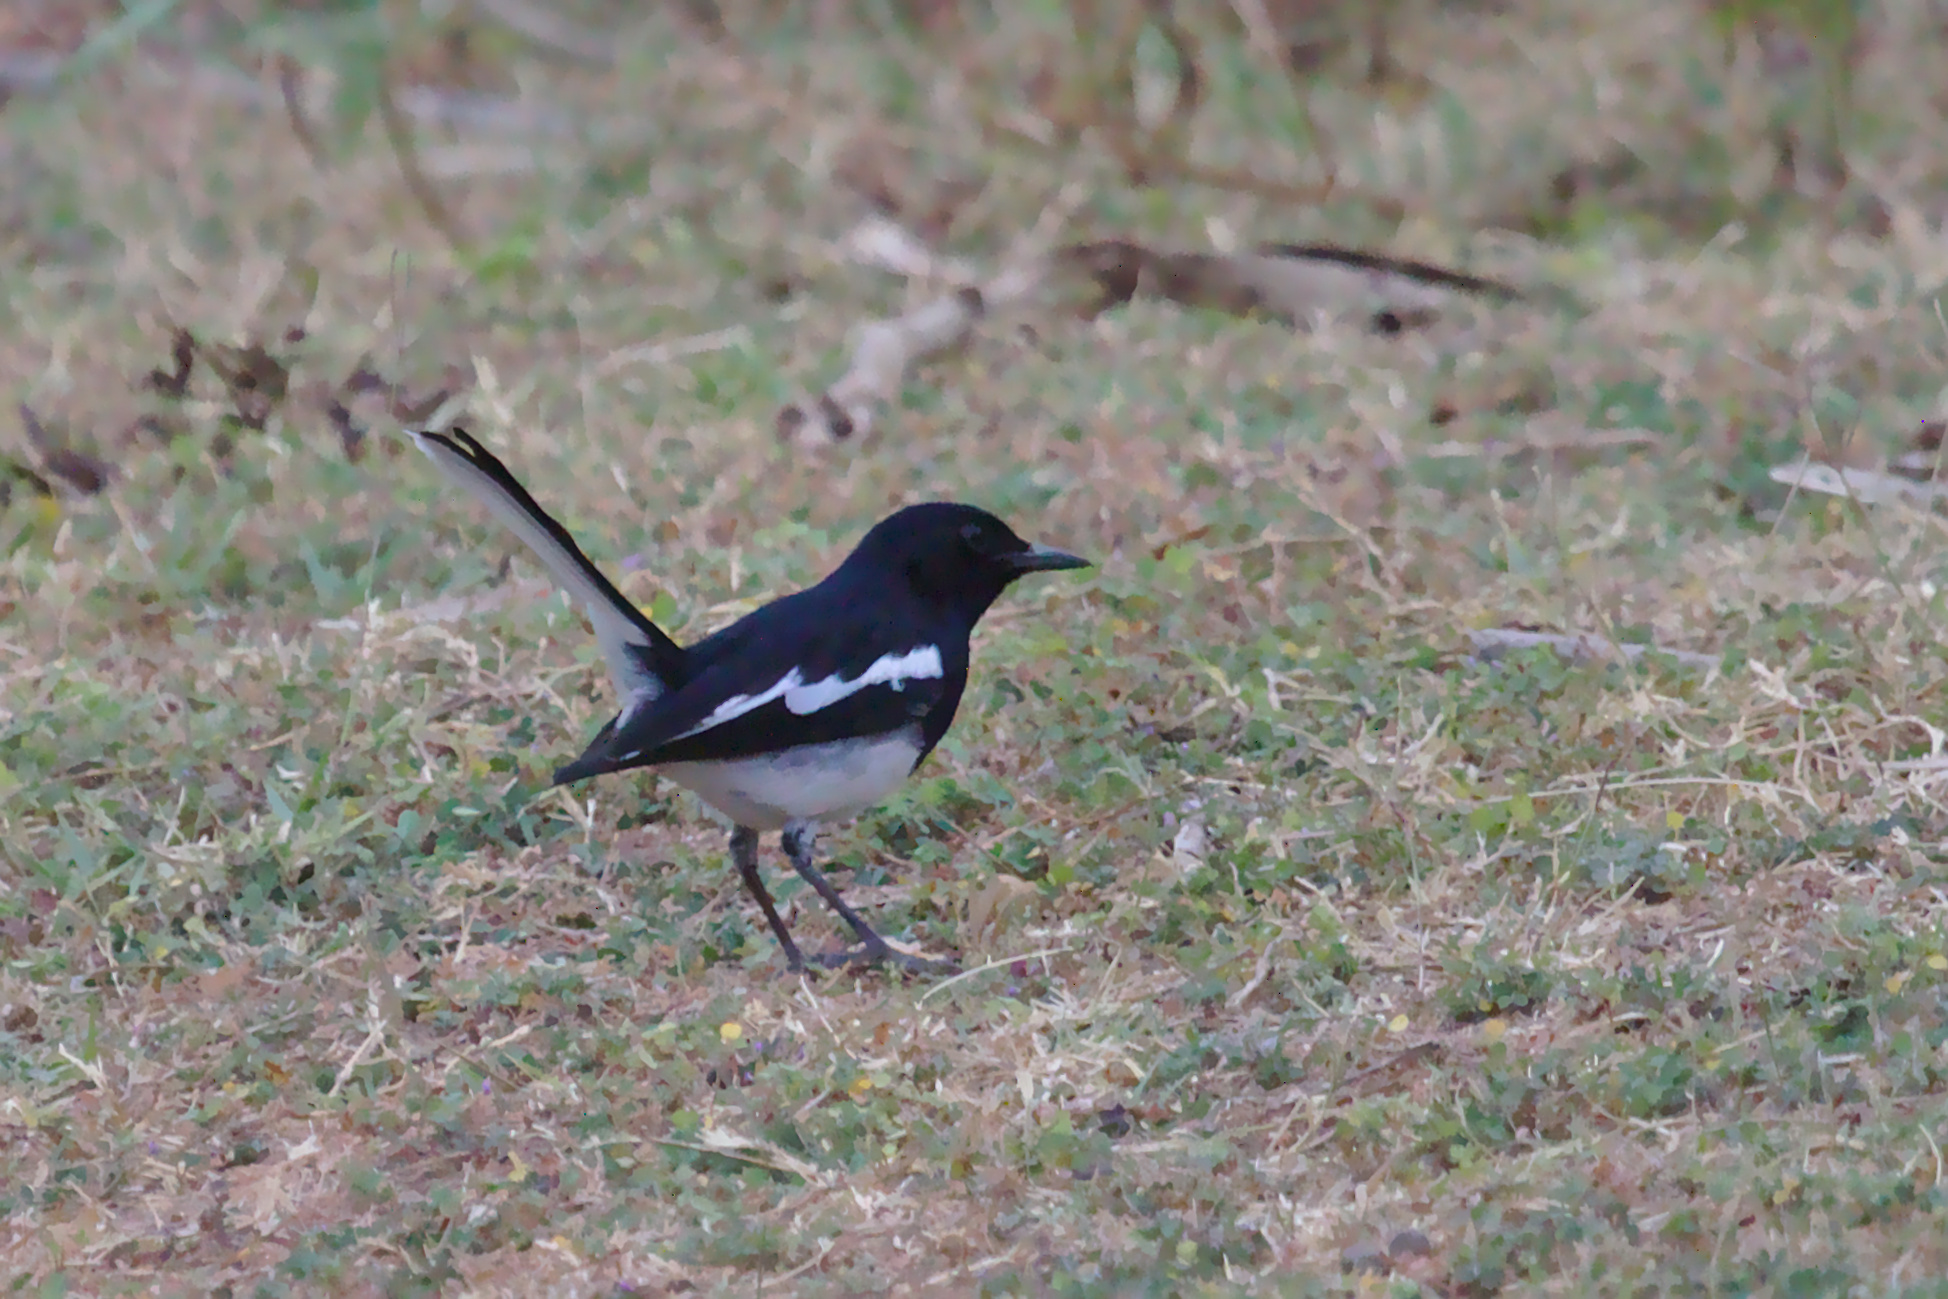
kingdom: Animalia
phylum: Chordata
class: Aves
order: Passeriformes
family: Muscicapidae
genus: Copsychus
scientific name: Copsychus saularis
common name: Oriental magpie-robin
